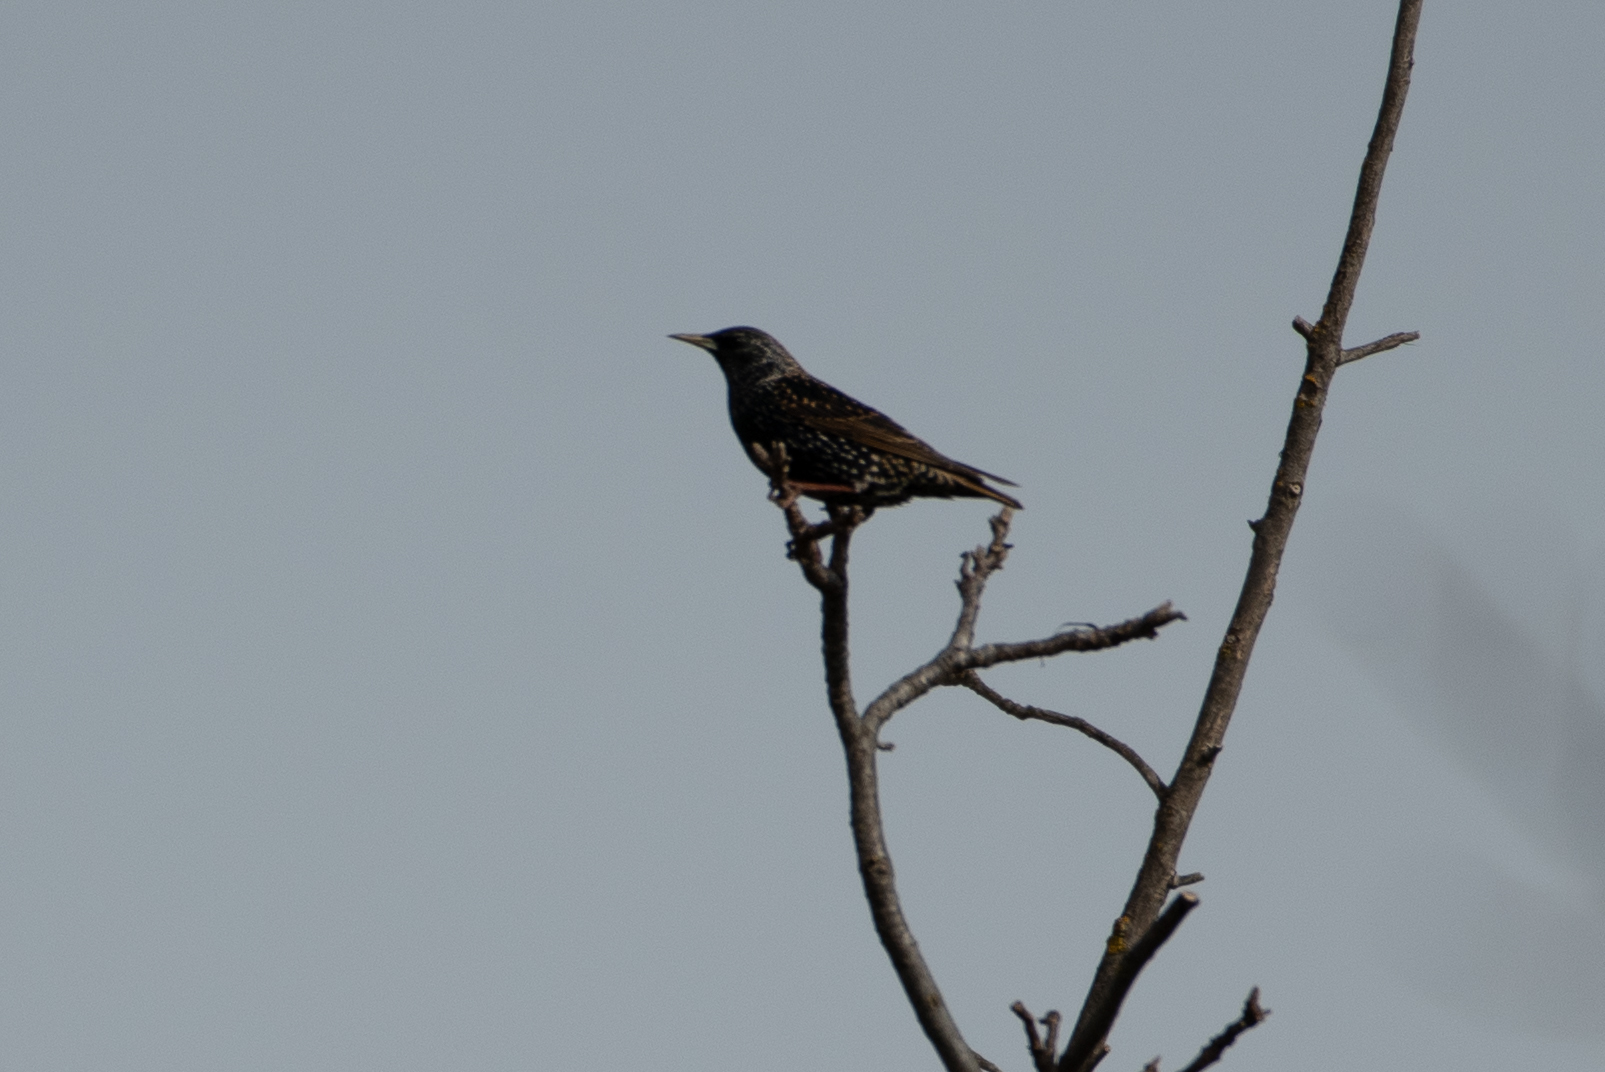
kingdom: Animalia
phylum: Chordata
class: Aves
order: Passeriformes
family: Sturnidae
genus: Sturnus
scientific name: Sturnus vulgaris
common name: Common starling
